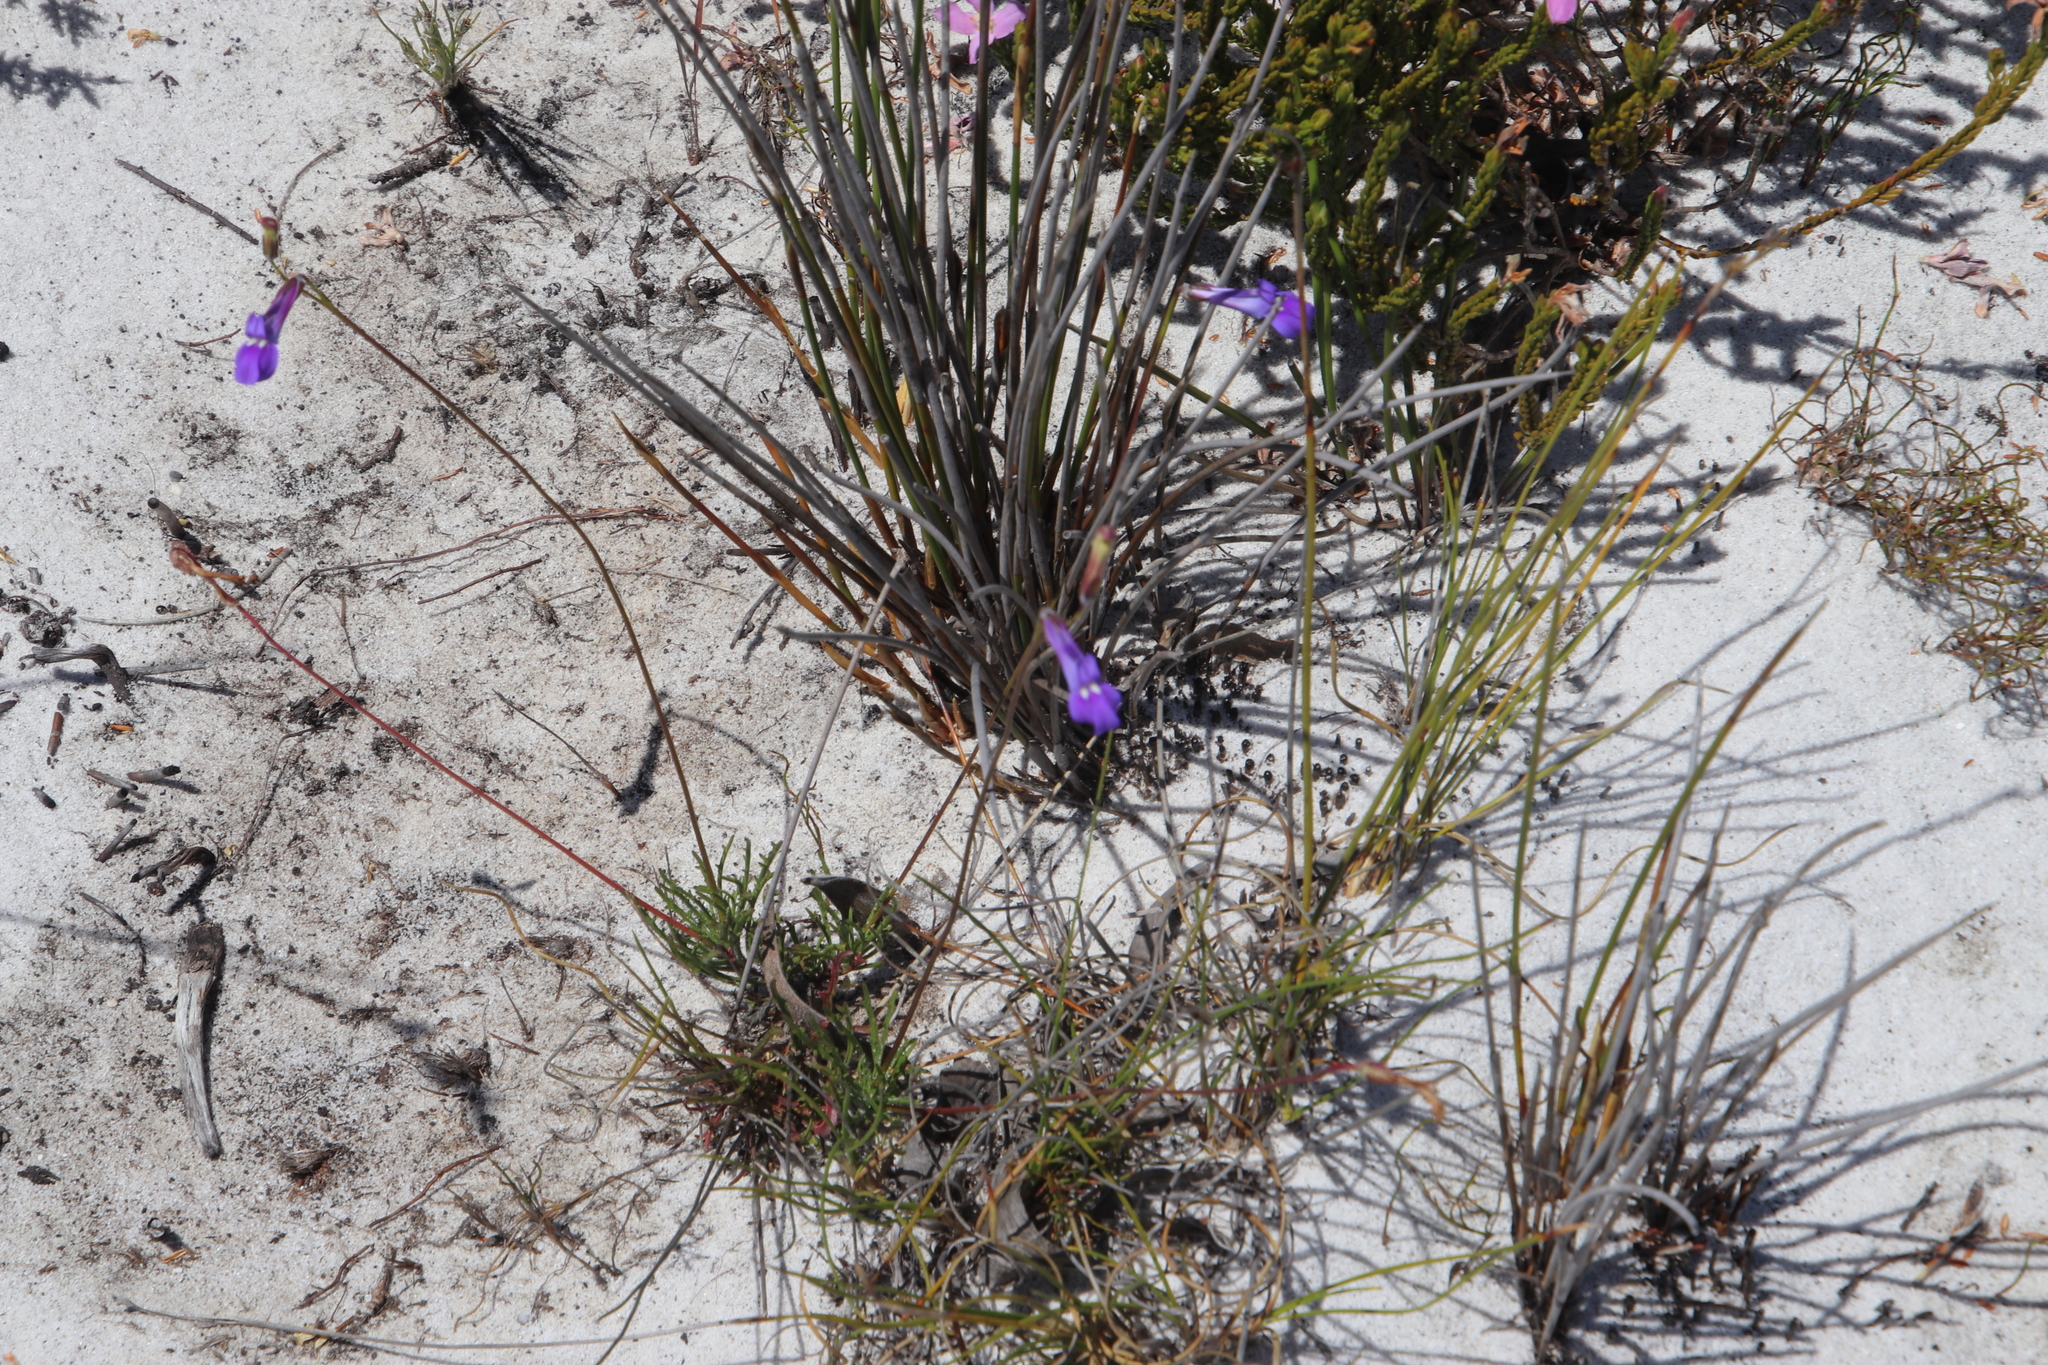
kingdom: Plantae
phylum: Tracheophyta
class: Magnoliopsida
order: Asterales
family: Campanulaceae
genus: Lobelia
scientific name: Lobelia coronopifolia
